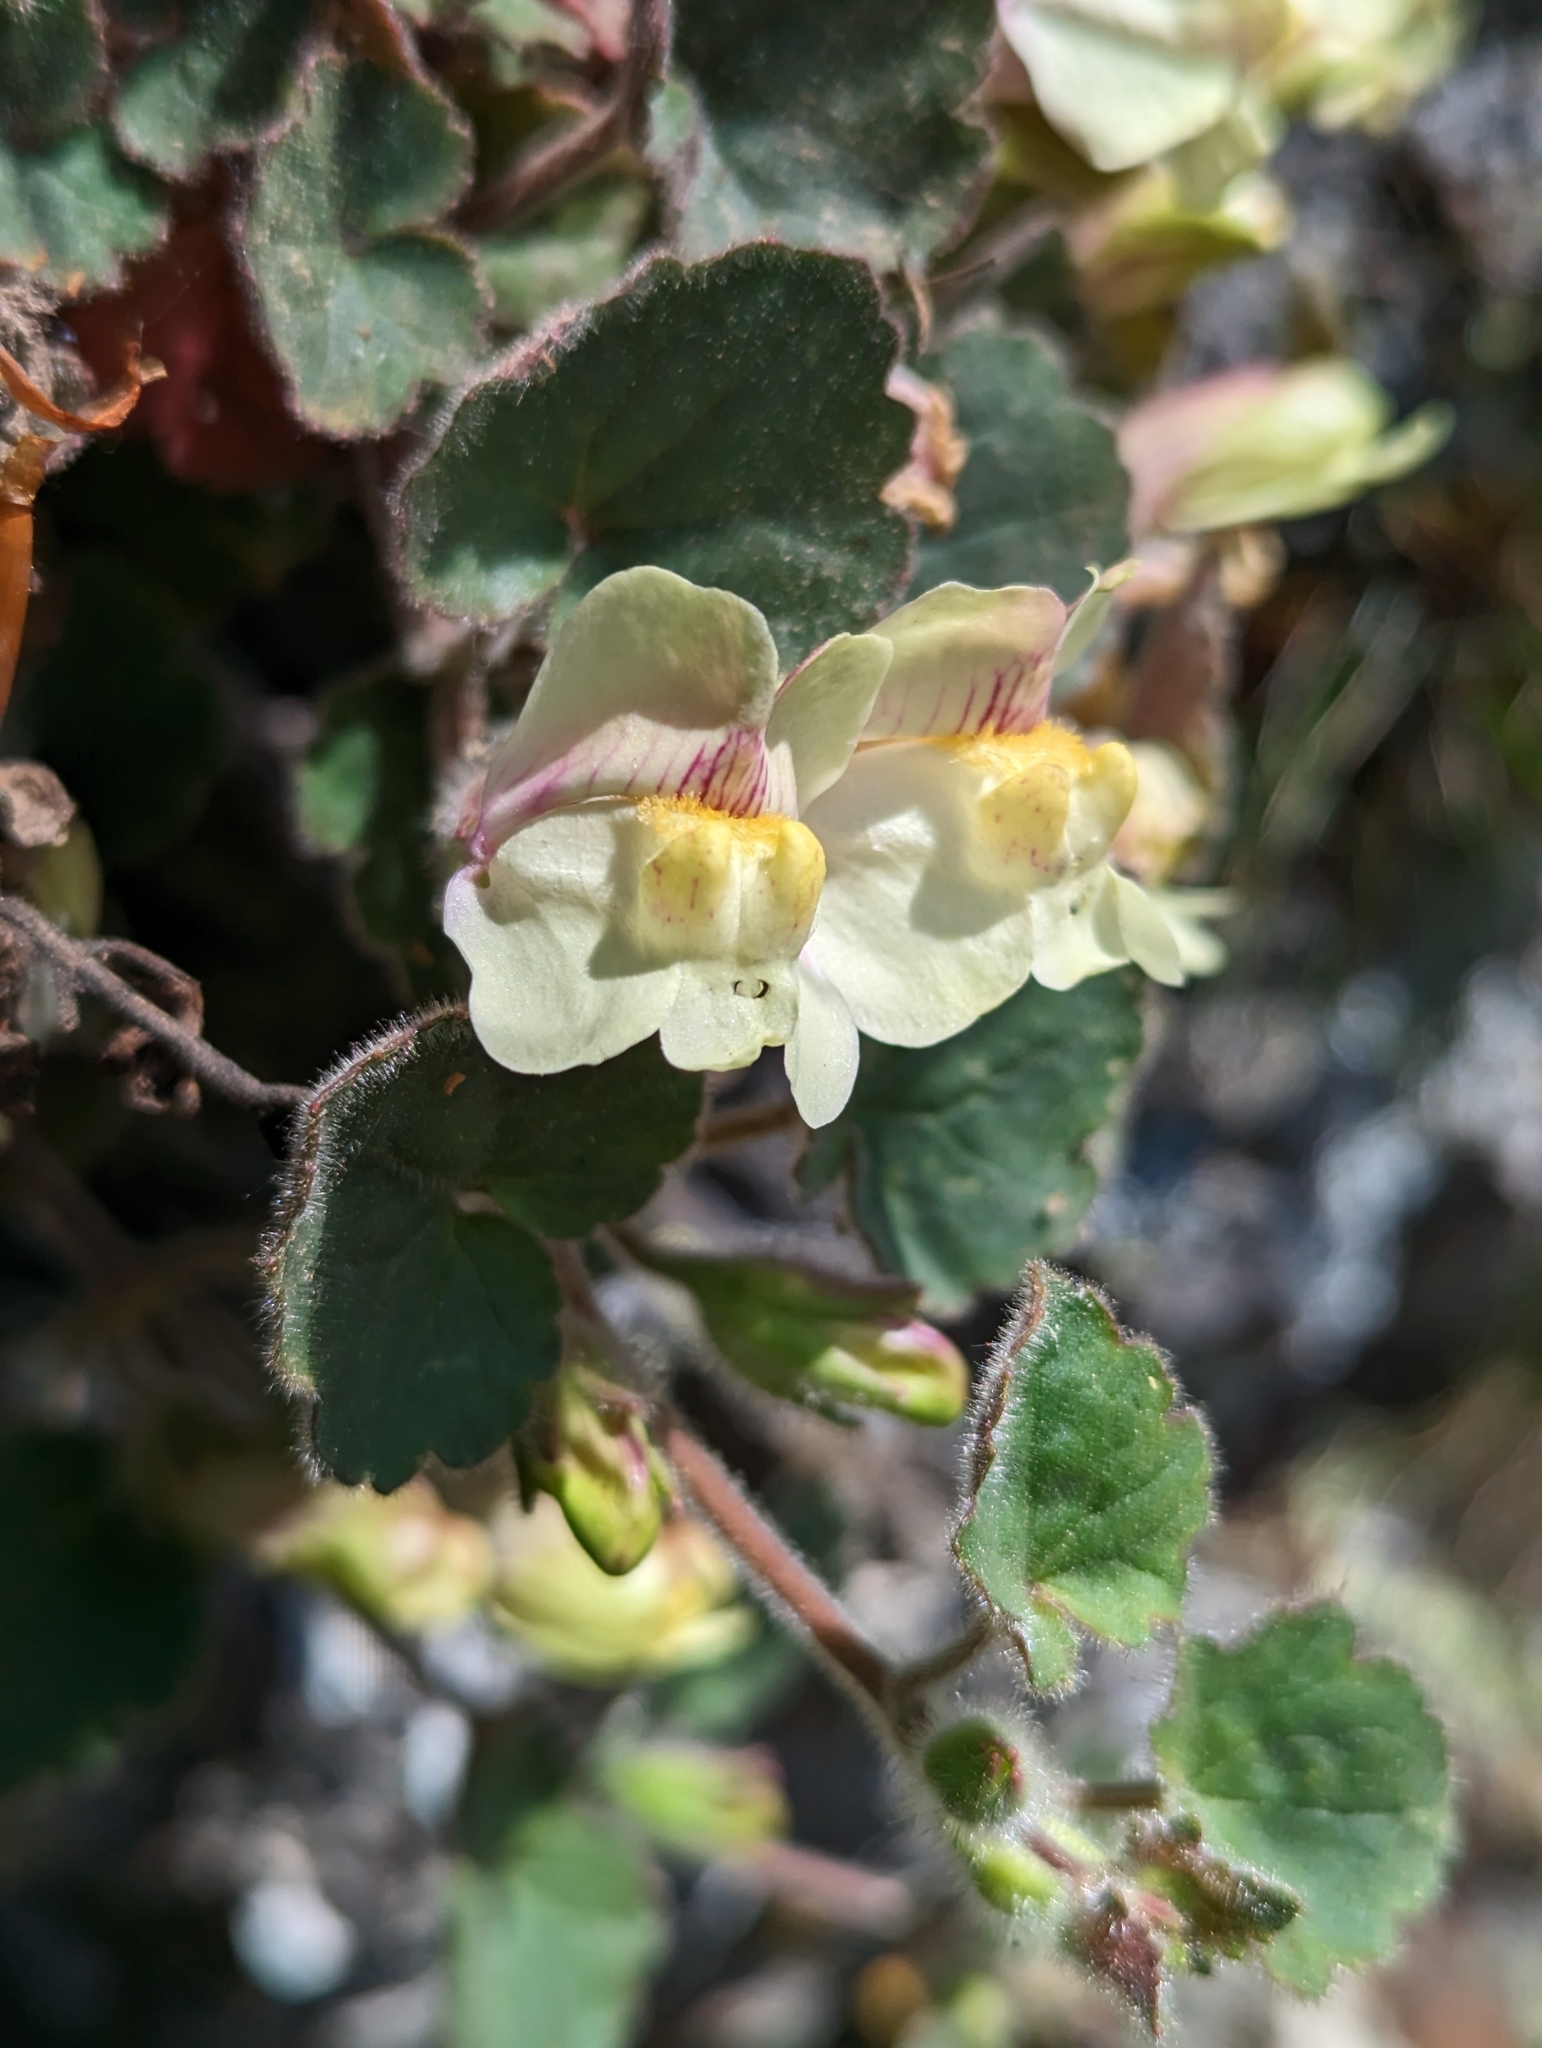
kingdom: Plantae
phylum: Tracheophyta
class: Magnoliopsida
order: Lamiales
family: Plantaginaceae
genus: Asarina
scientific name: Asarina procumbens
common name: Trailing snapdragon
